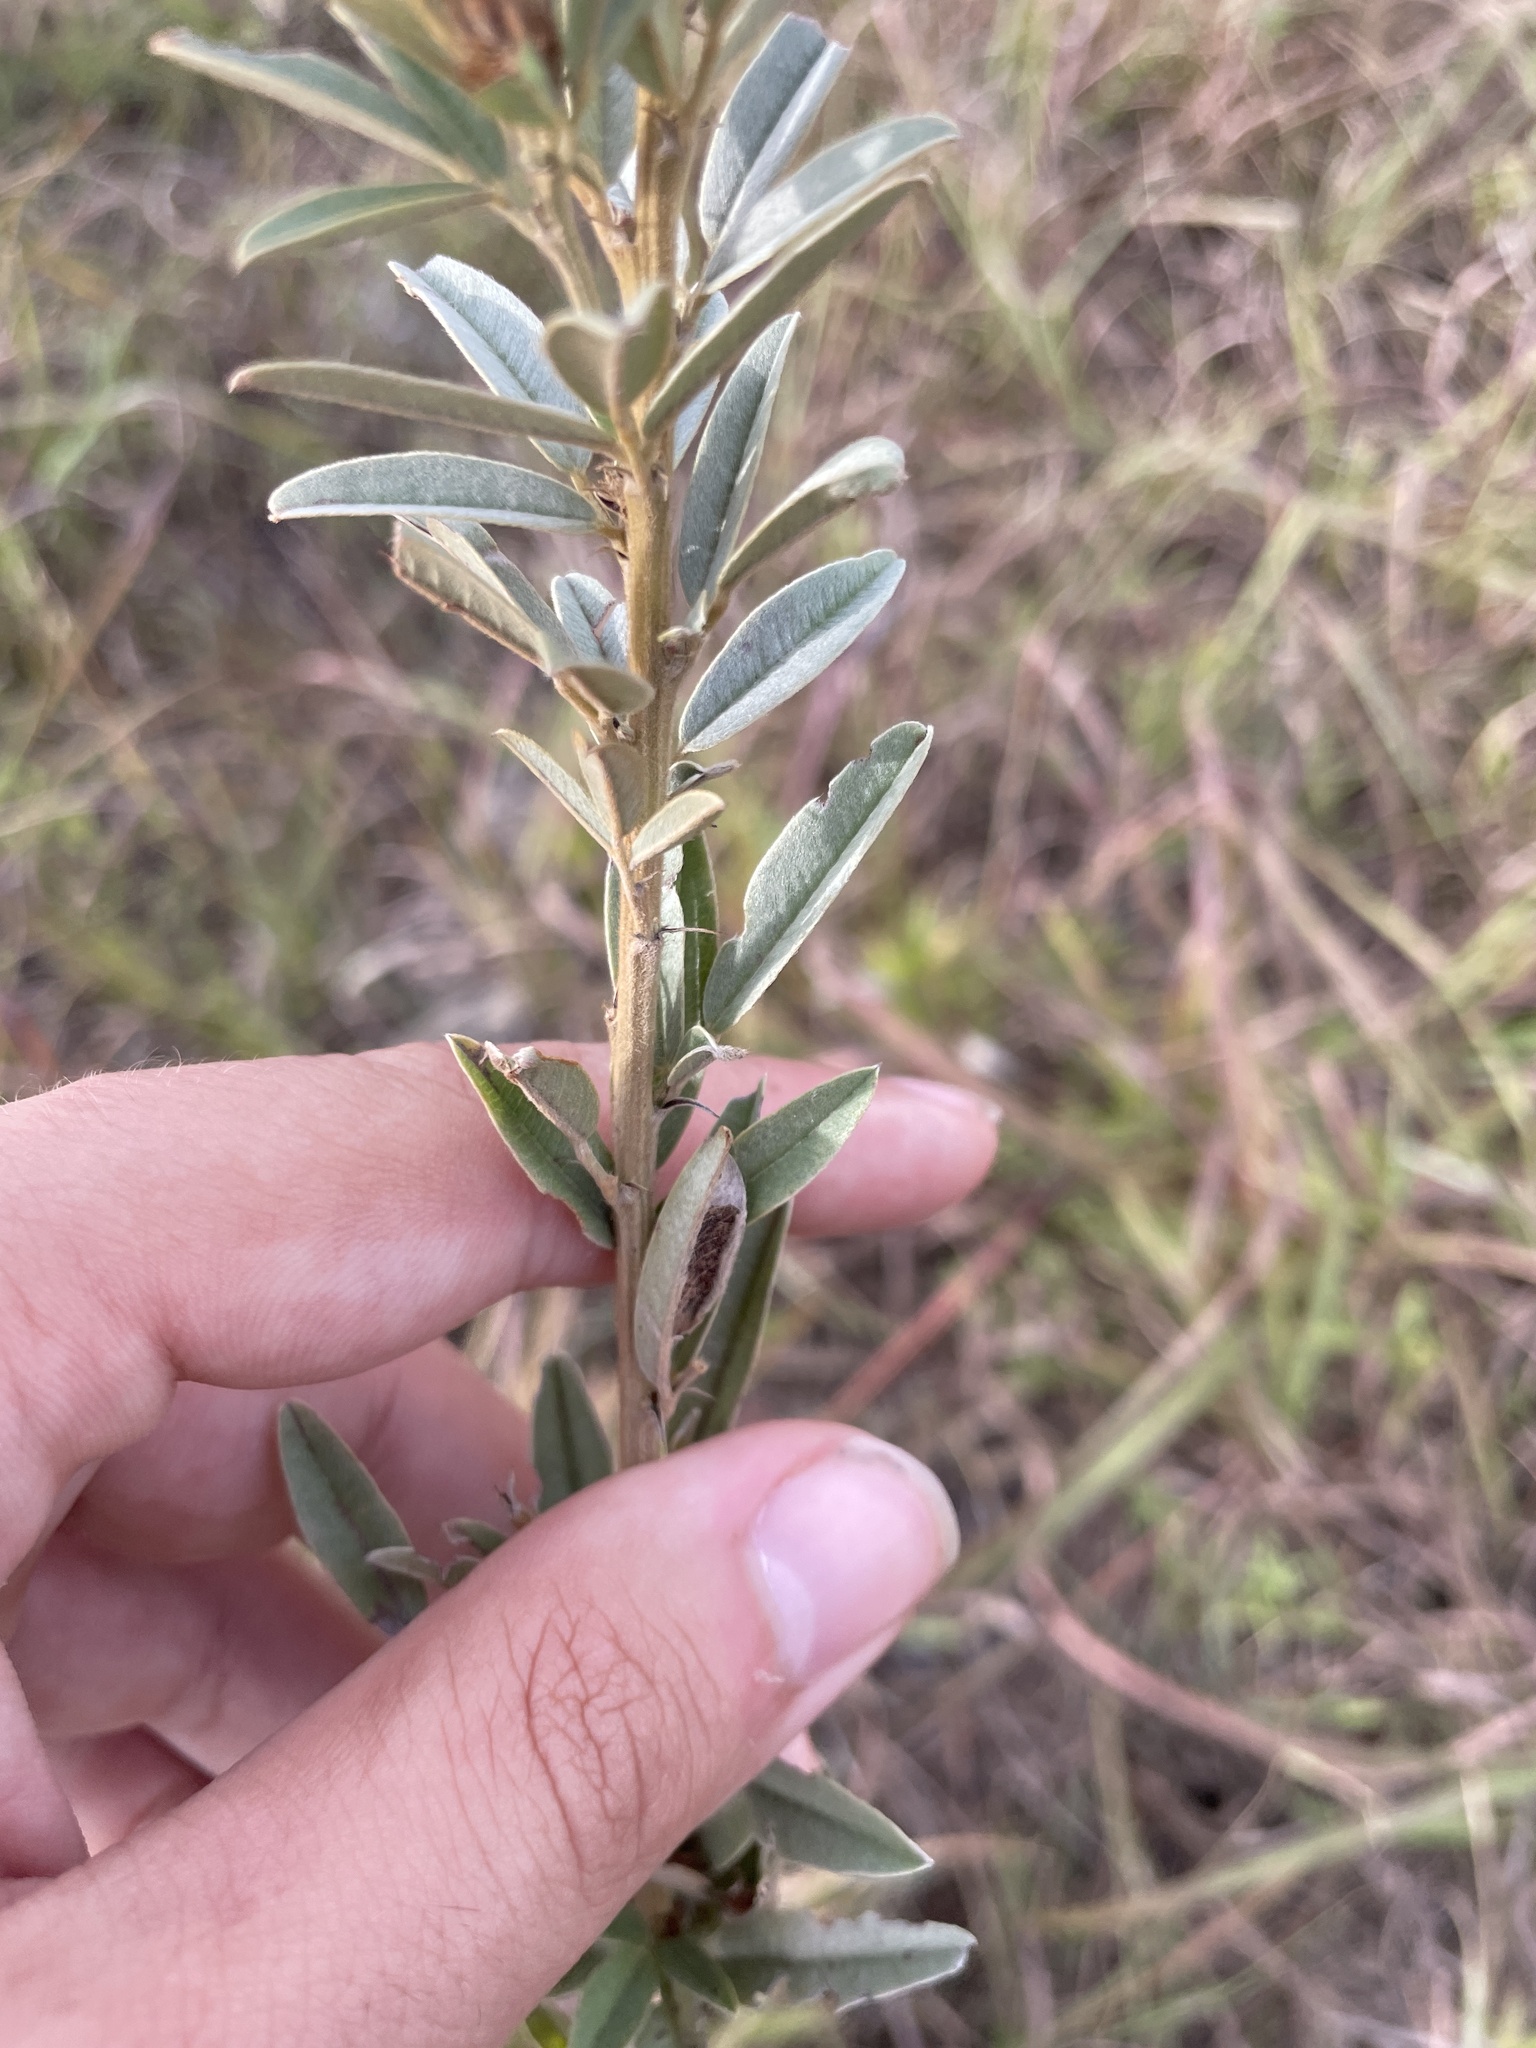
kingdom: Plantae
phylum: Tracheophyta
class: Magnoliopsida
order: Fabales
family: Fabaceae
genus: Lespedeza
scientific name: Lespedeza capitata
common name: Dusty clover
